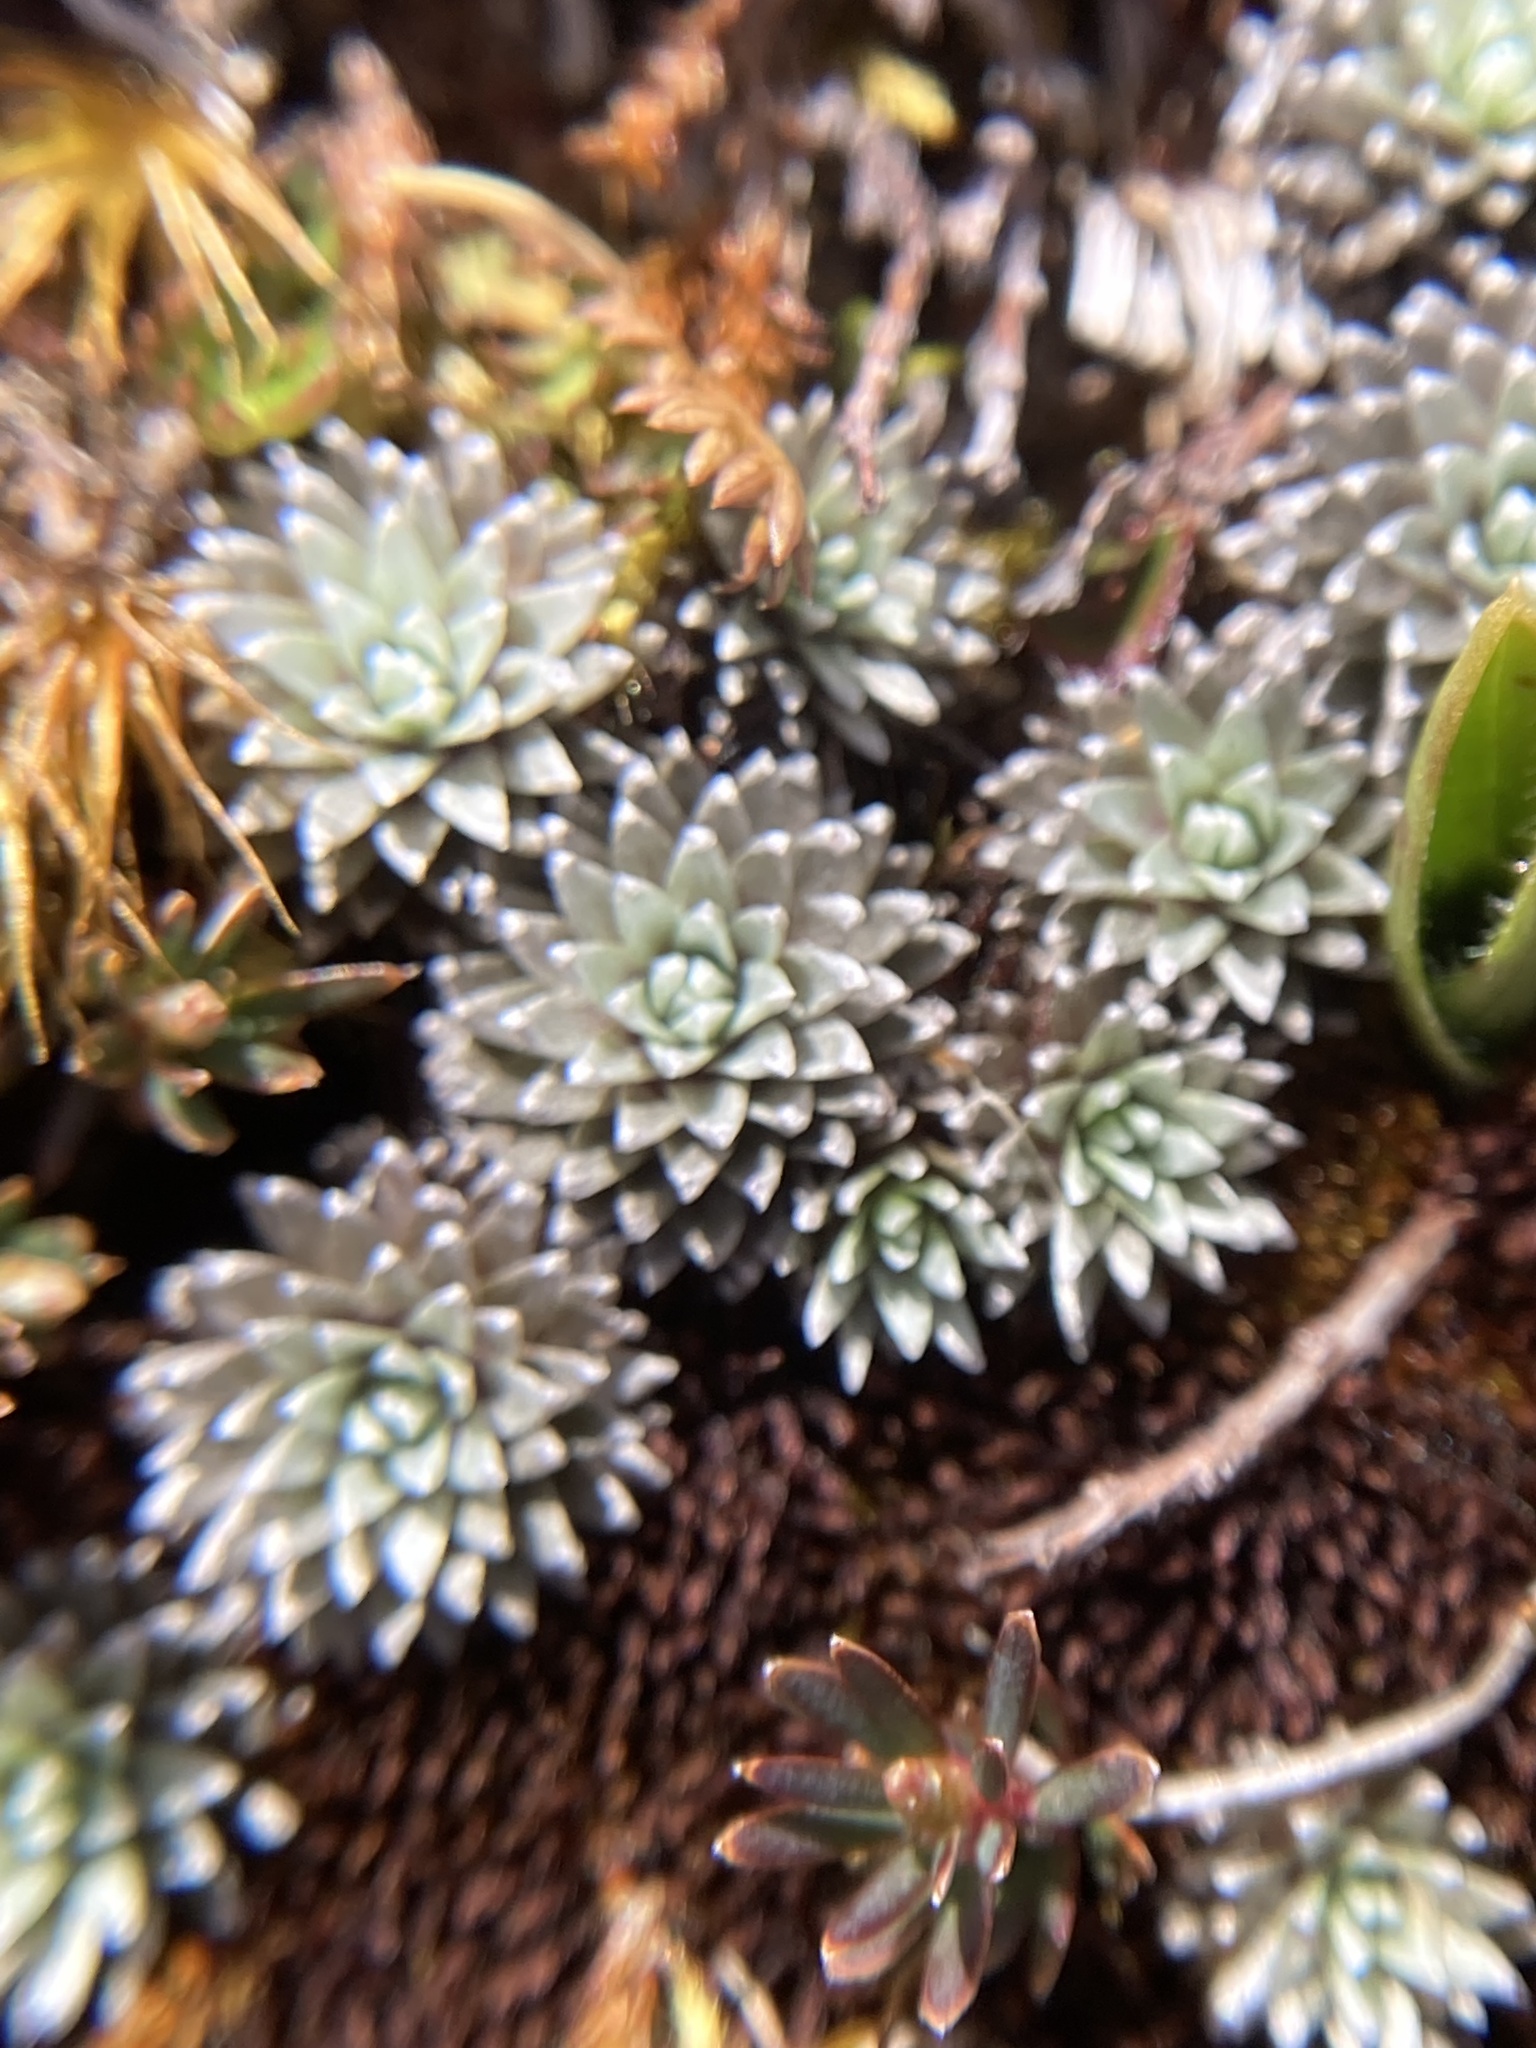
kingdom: Plantae
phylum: Tracheophyta
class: Magnoliopsida
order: Asterales
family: Asteraceae
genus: Raoulia
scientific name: Raoulia grandiflora
